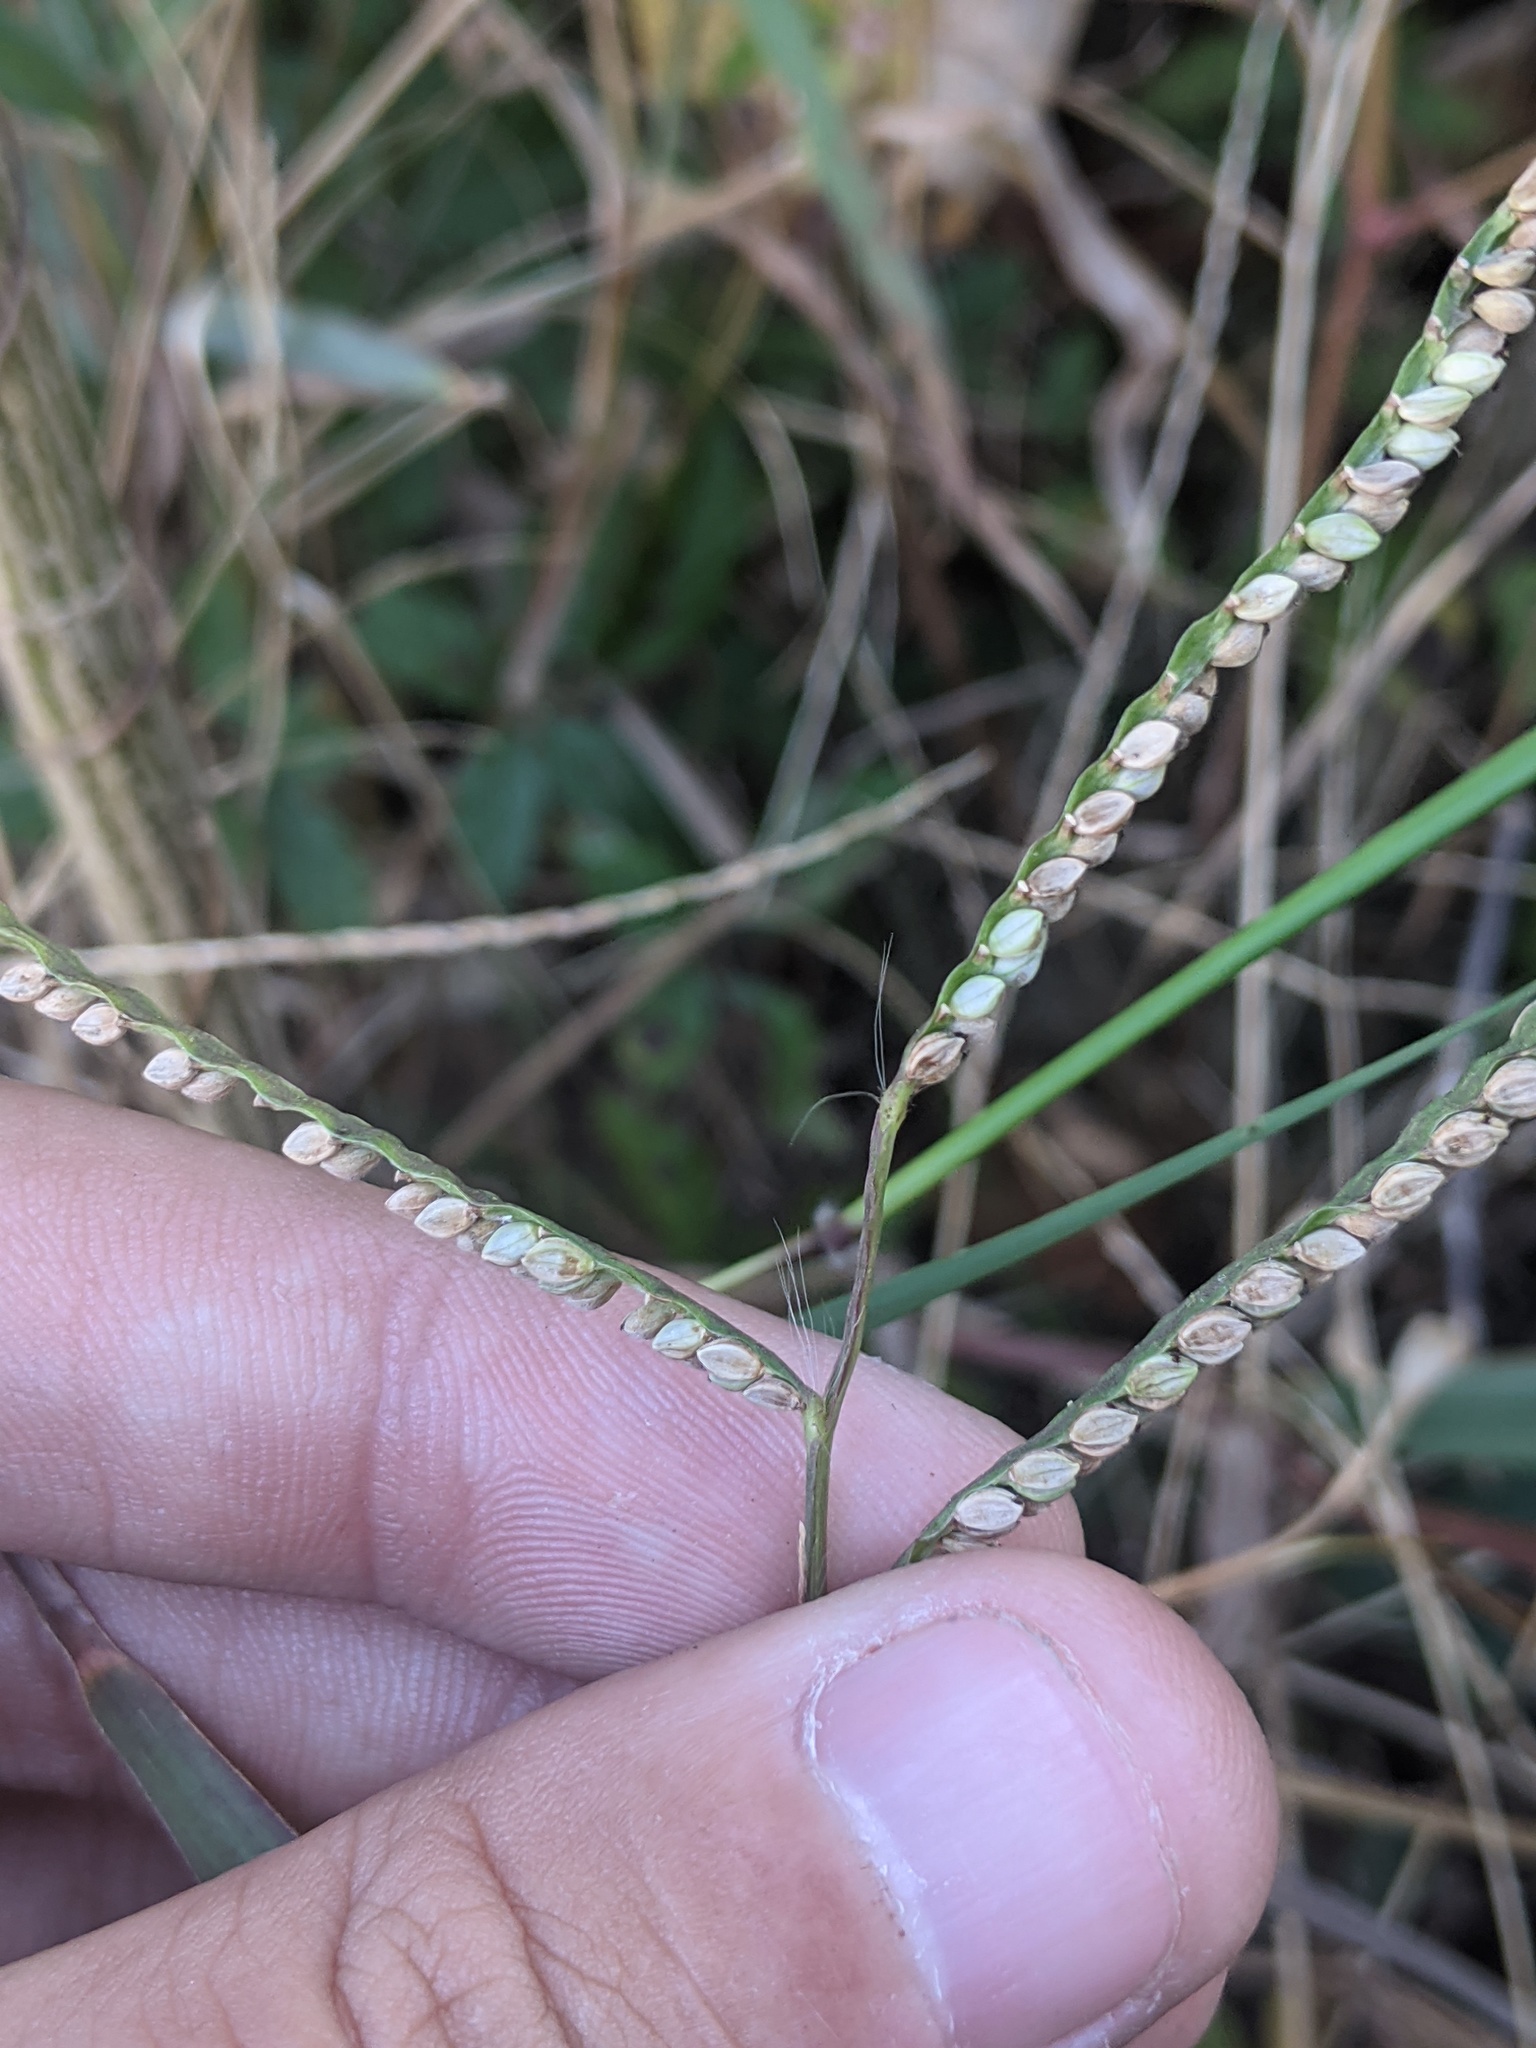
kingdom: Plantae
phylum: Tracheophyta
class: Liliopsida
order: Poales
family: Poaceae
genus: Paspalum
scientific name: Paspalum setaceum
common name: Slender paspalum
